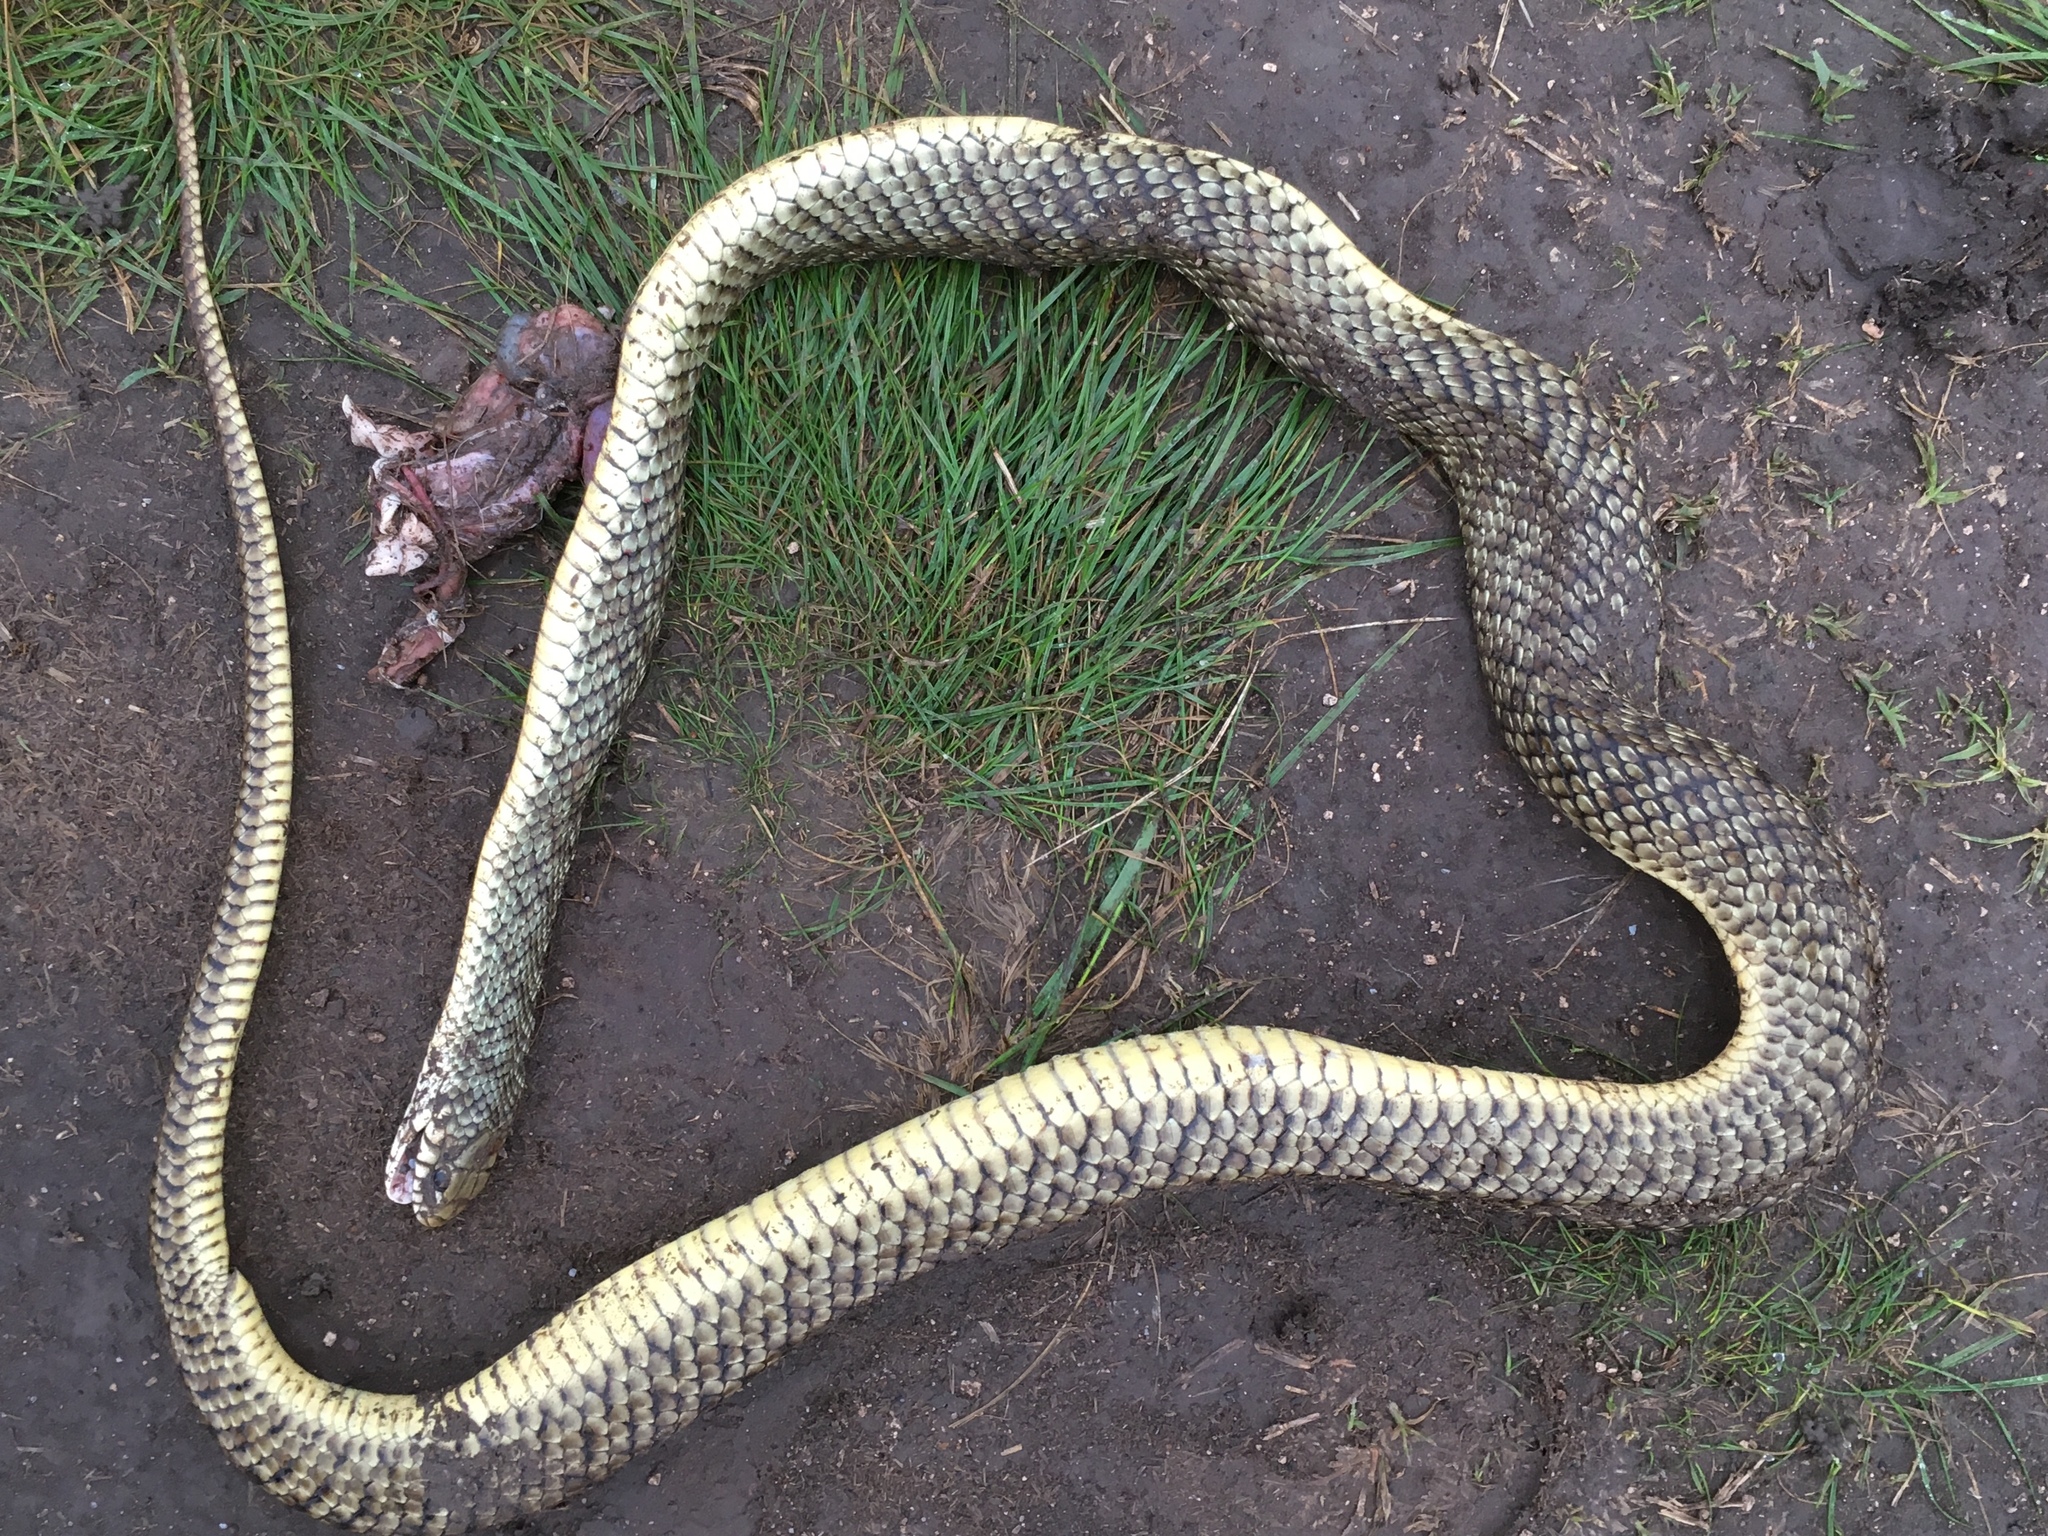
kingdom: Animalia
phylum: Chordata
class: Squamata
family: Colubridae
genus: Philodryas
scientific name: Philodryas patagoniensis
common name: Patagonia green racer
